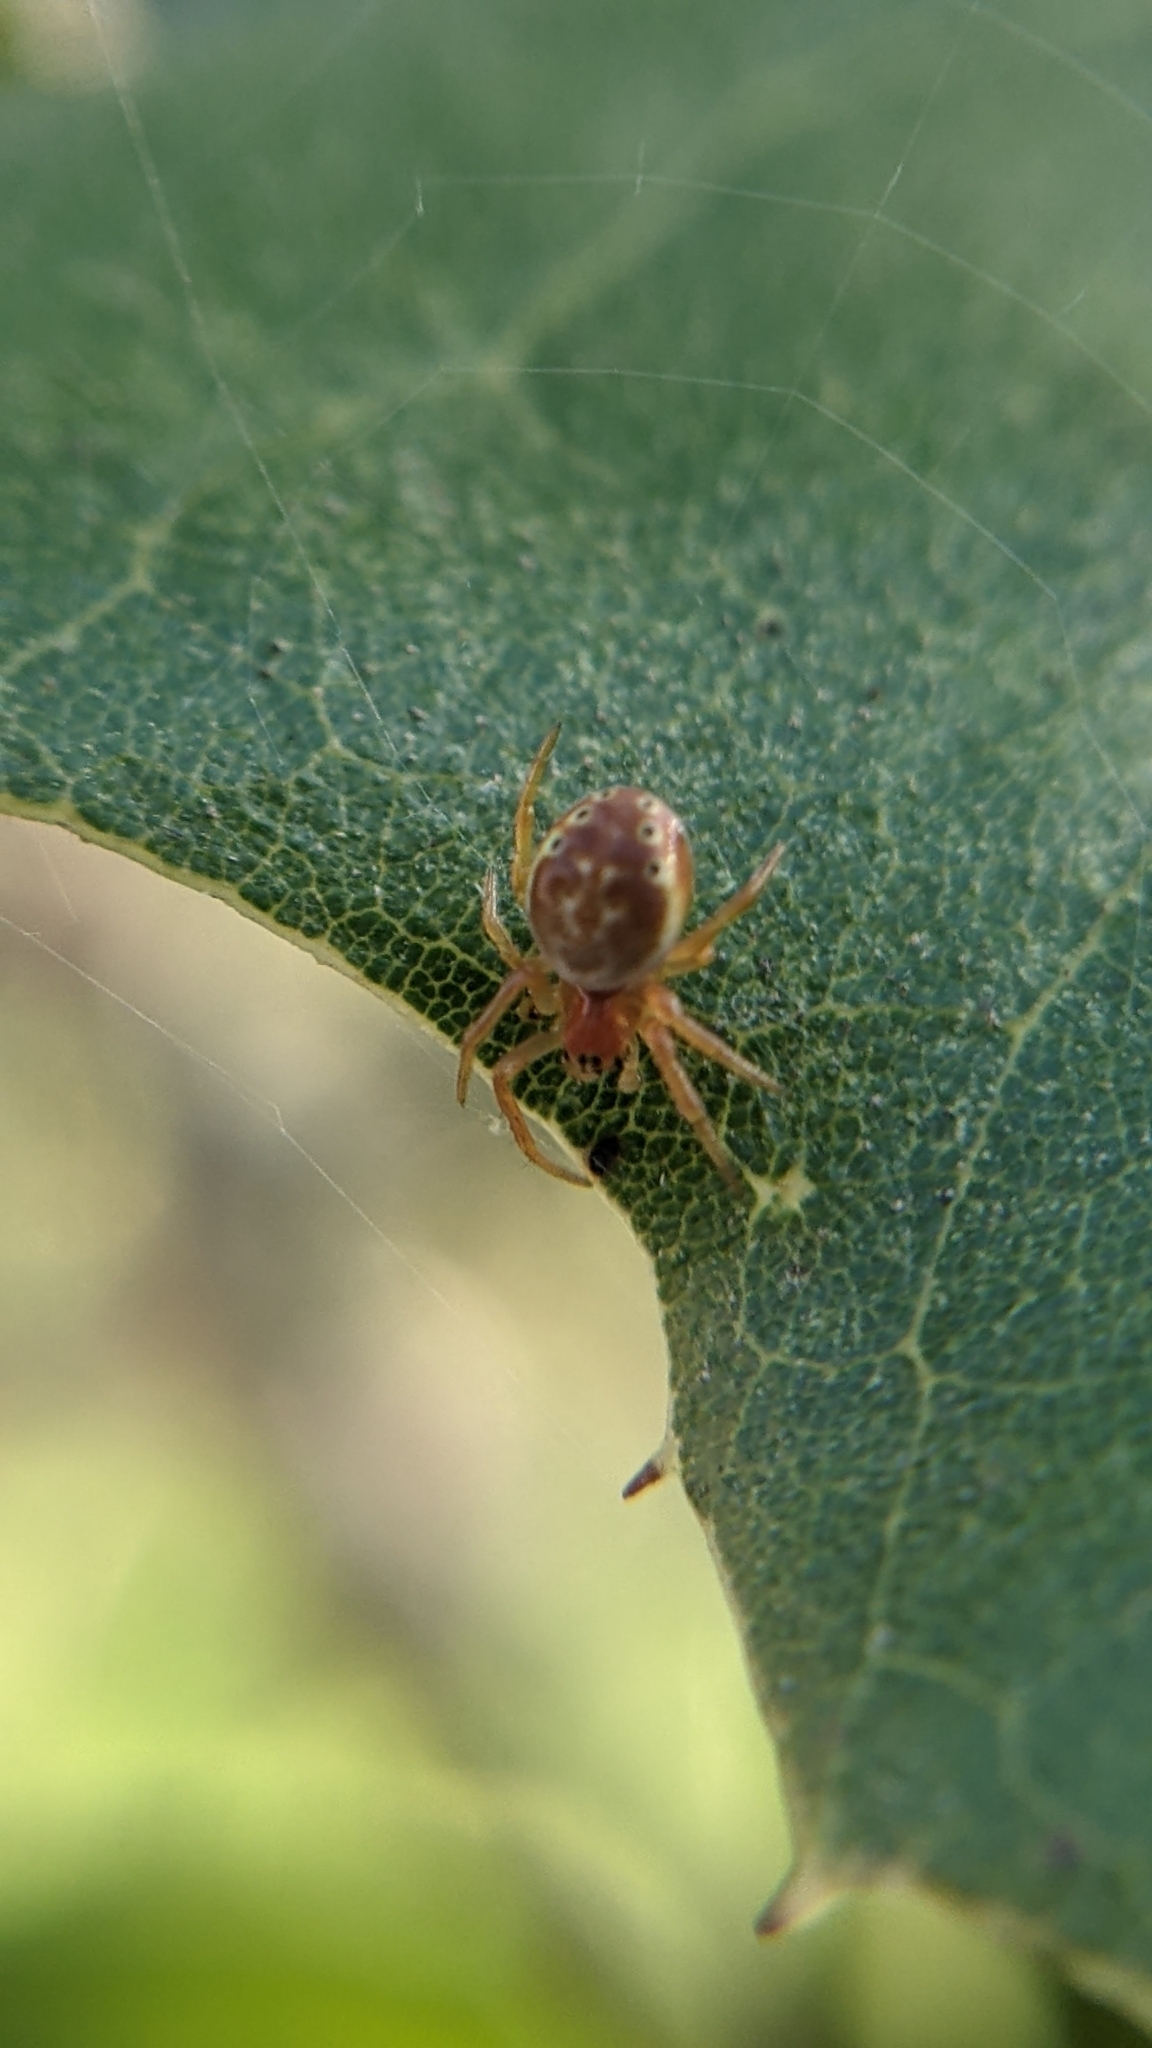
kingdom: Animalia
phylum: Arthropoda
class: Arachnida
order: Araneae
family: Araneidae
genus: Araniella
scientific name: Araniella displicata
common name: Sixspotted orb weaver
